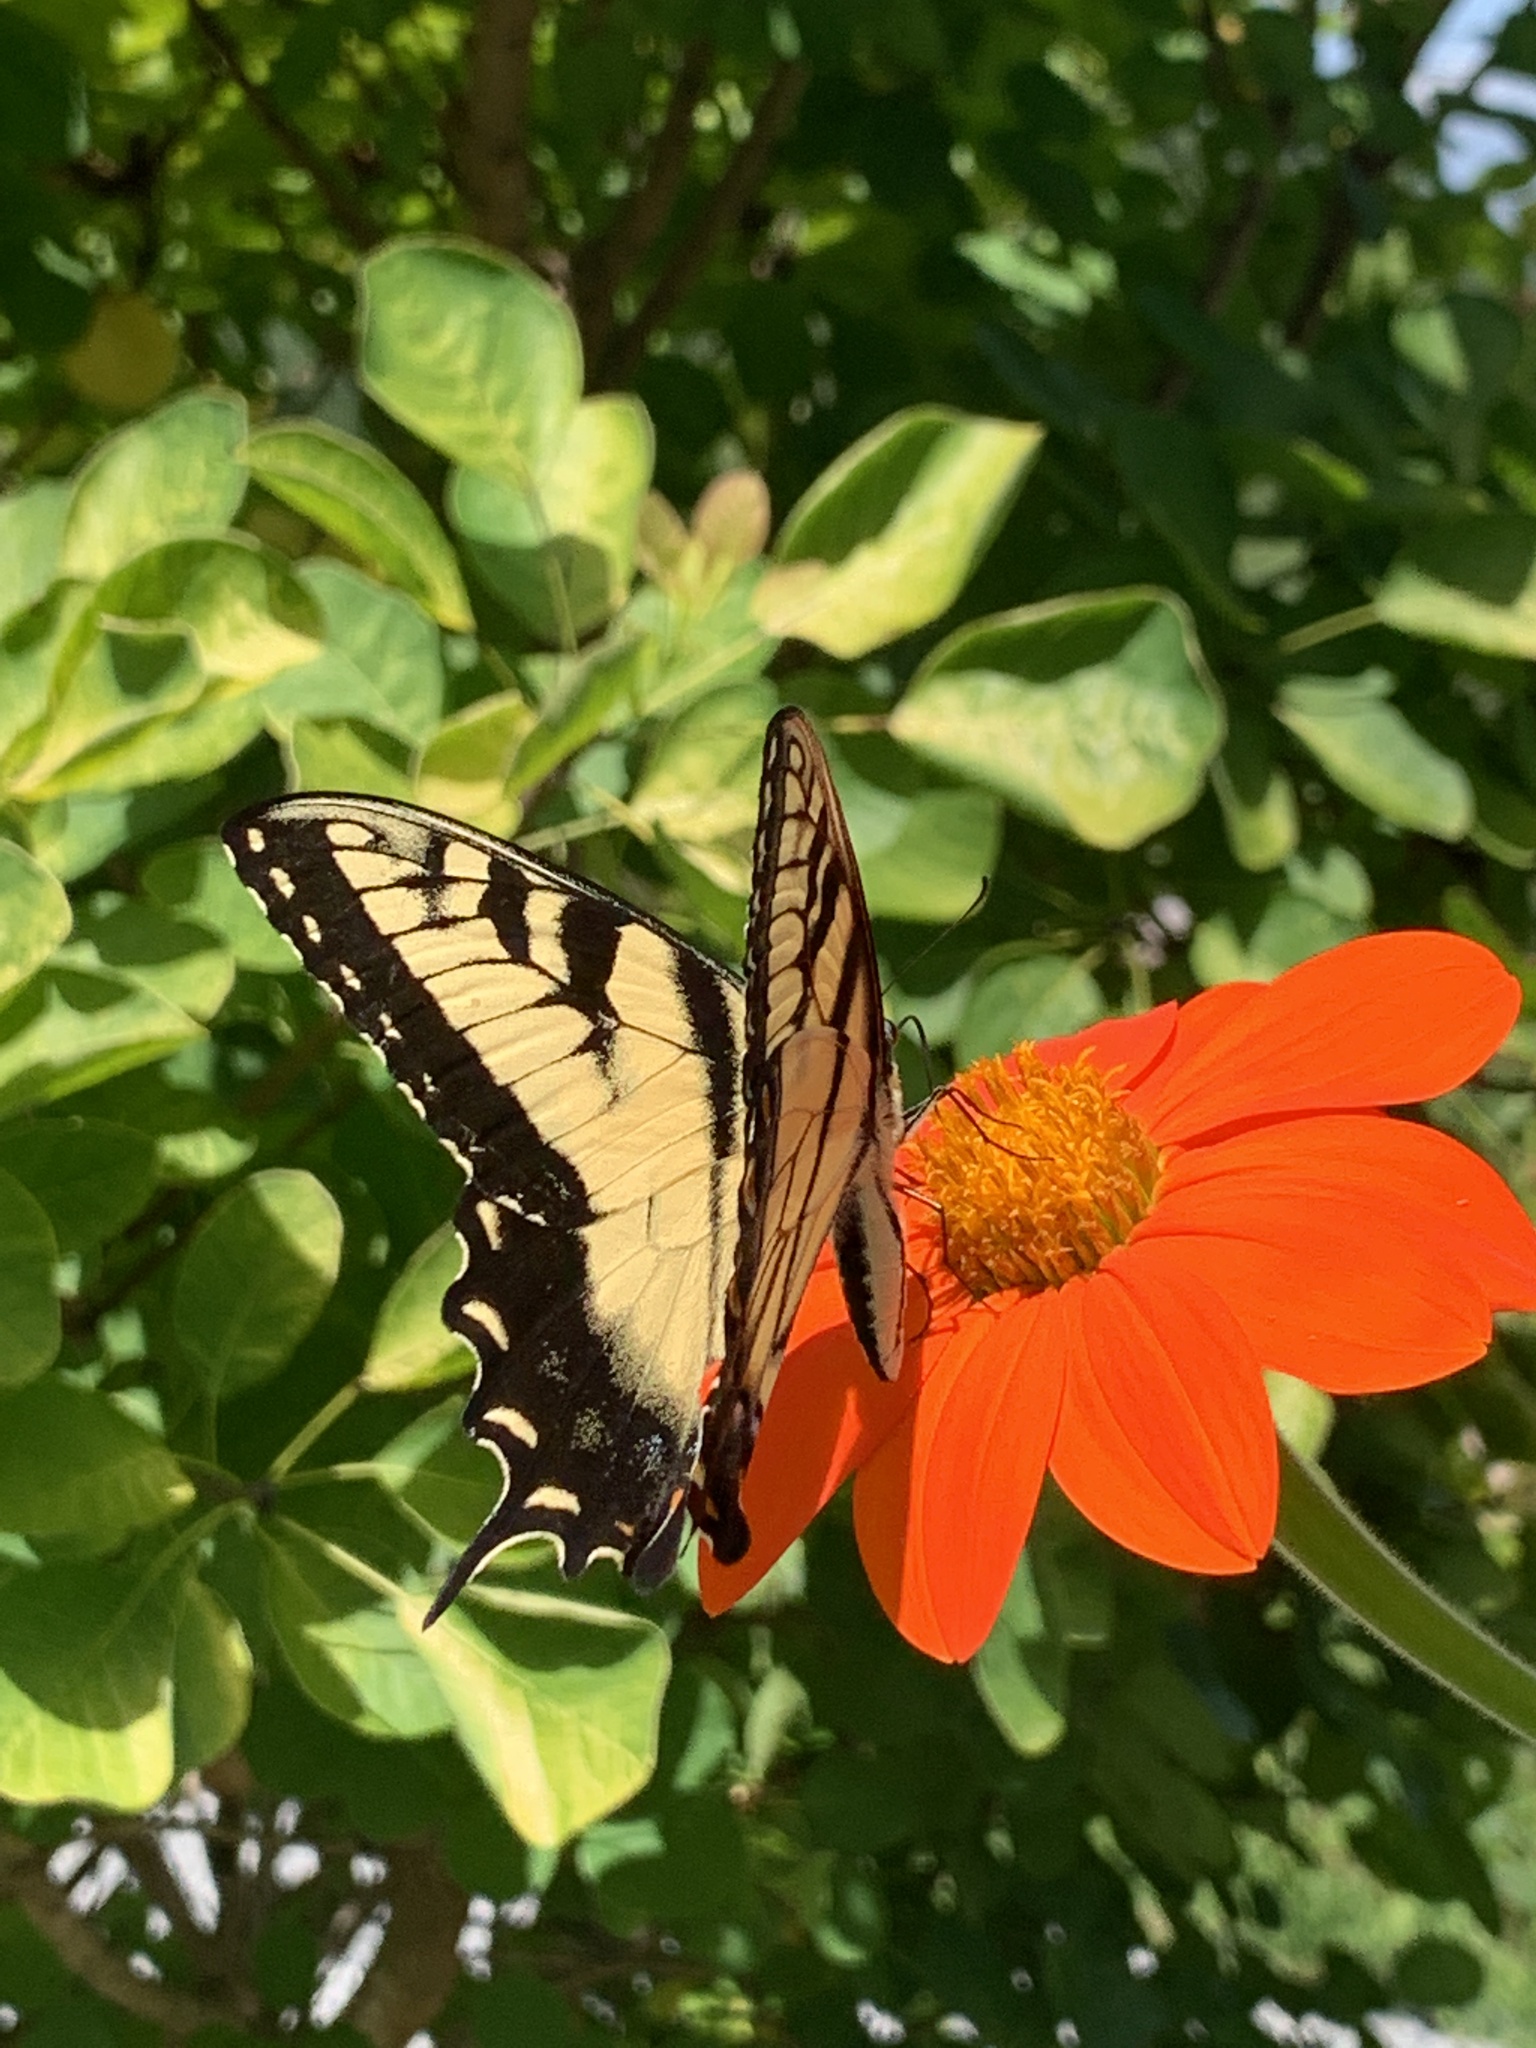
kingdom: Animalia
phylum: Arthropoda
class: Insecta
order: Lepidoptera
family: Papilionidae
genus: Papilio
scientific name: Papilio glaucus
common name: Tiger swallowtail
